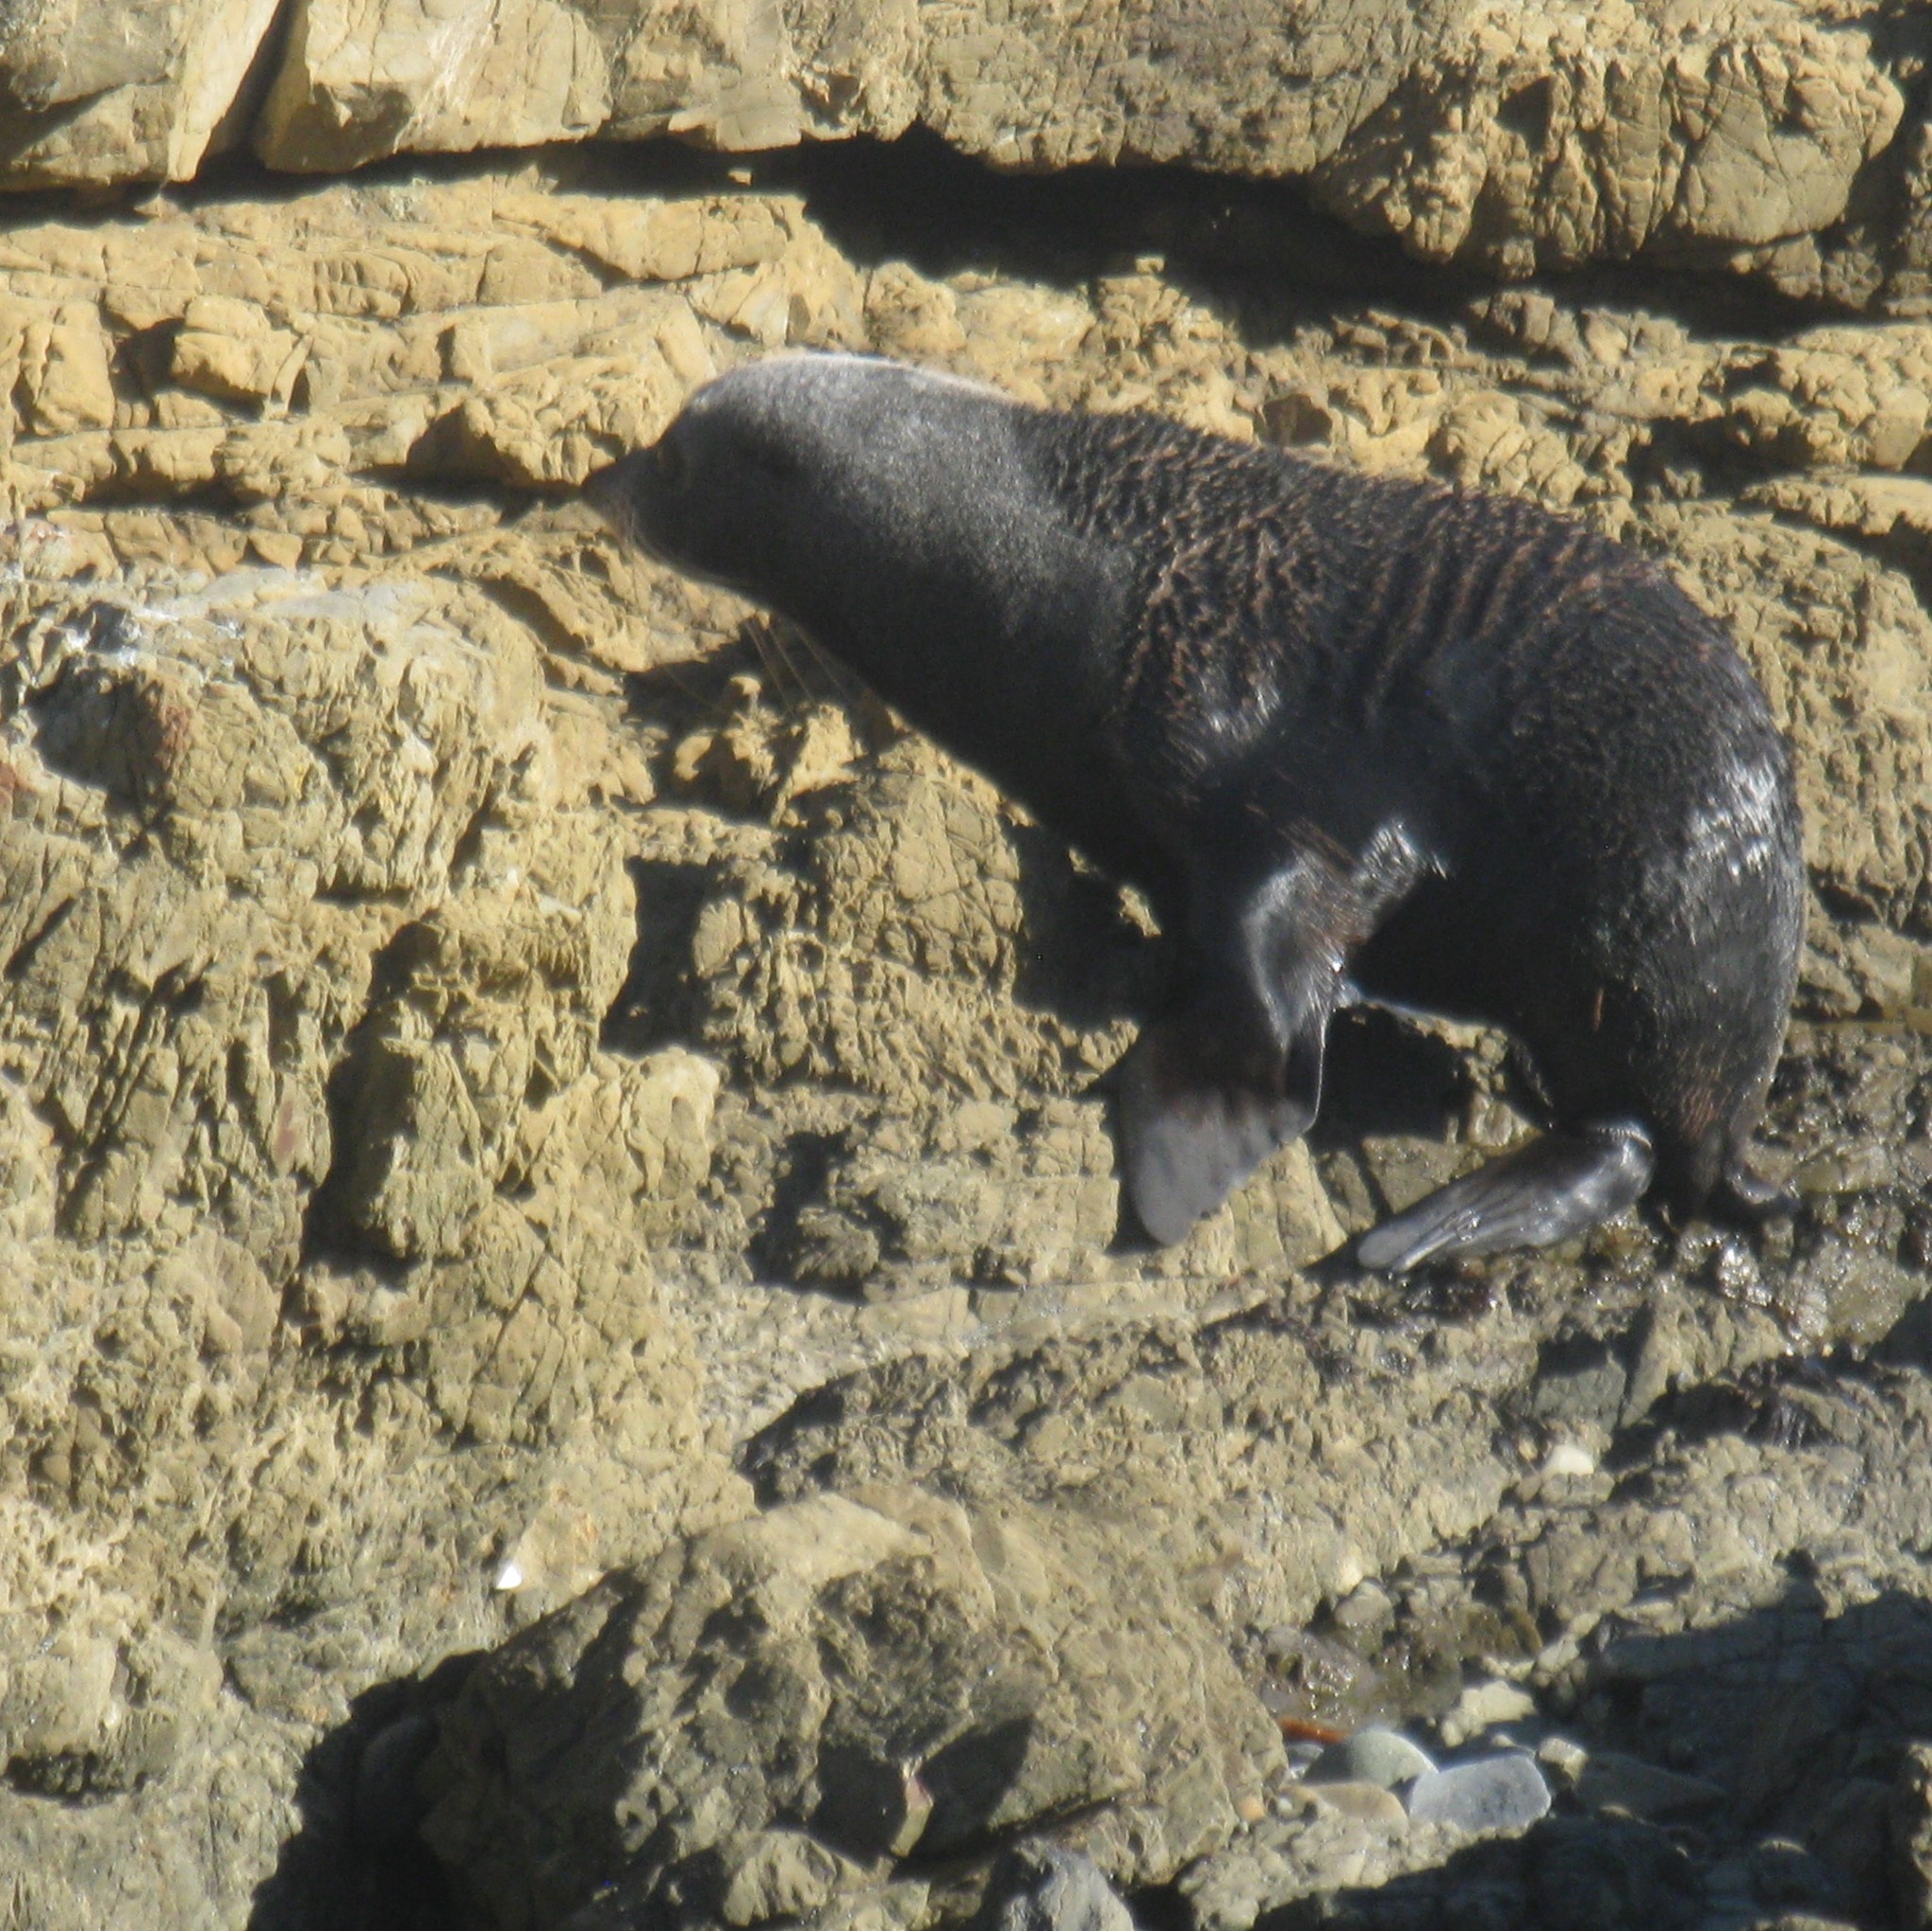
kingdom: Animalia
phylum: Chordata
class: Mammalia
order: Carnivora
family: Otariidae
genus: Arctocephalus
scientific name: Arctocephalus forsteri
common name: New zealand fur seal
